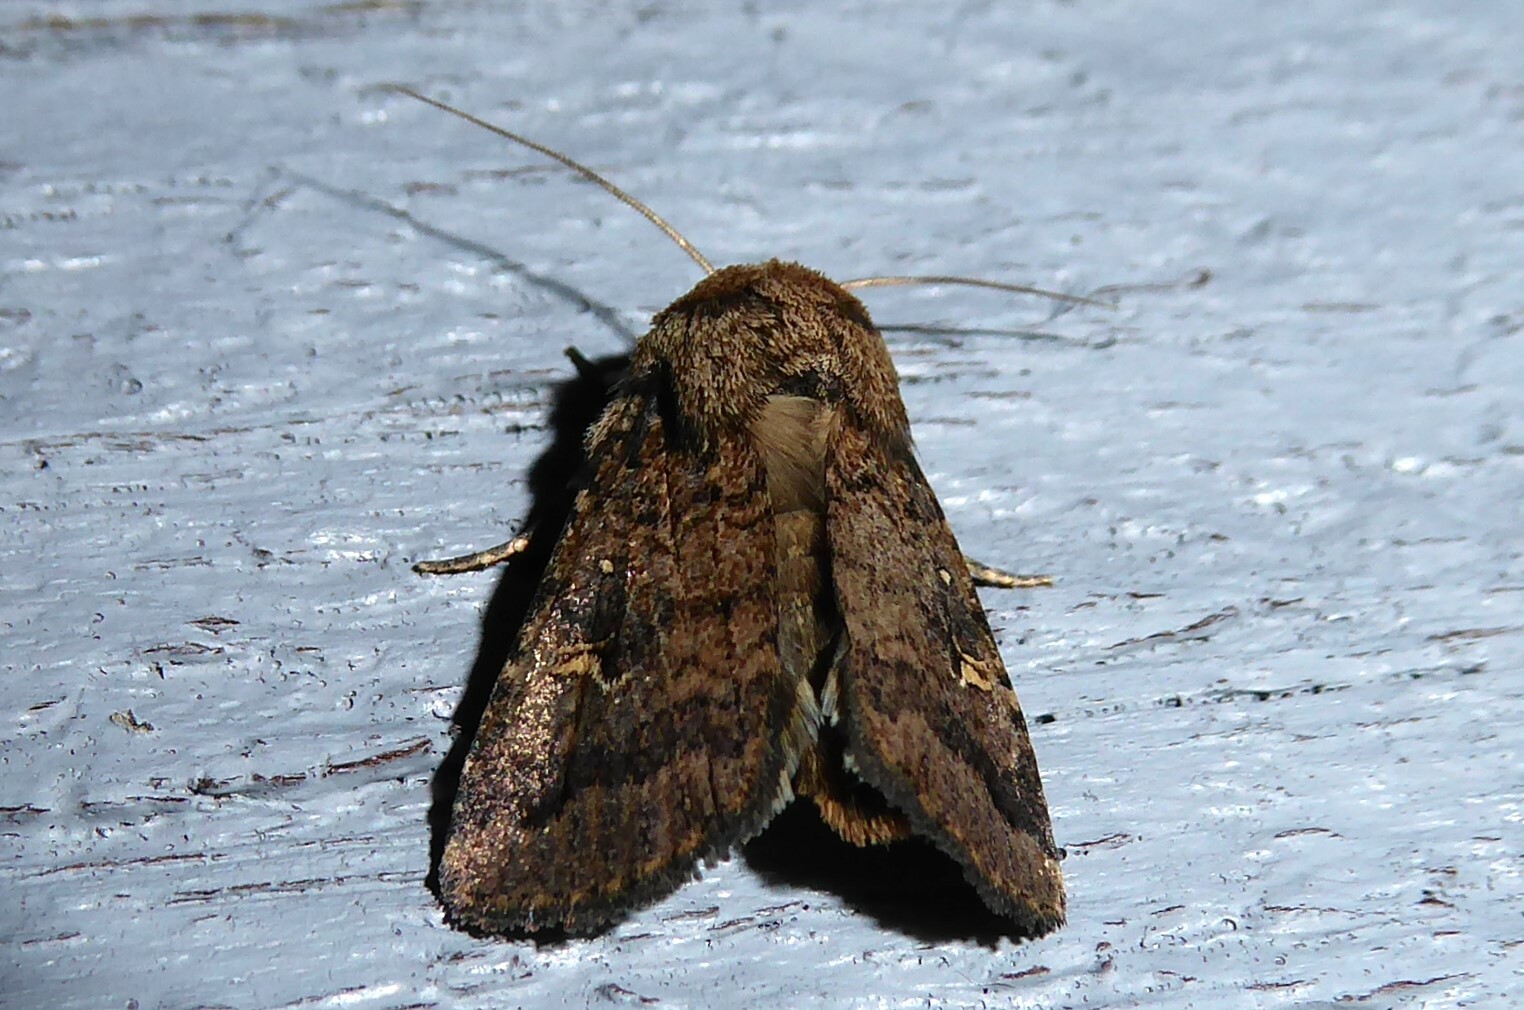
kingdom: Animalia
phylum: Arthropoda
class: Insecta
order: Lepidoptera
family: Noctuidae
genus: Proteuxoa
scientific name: Proteuxoa tetronycha
